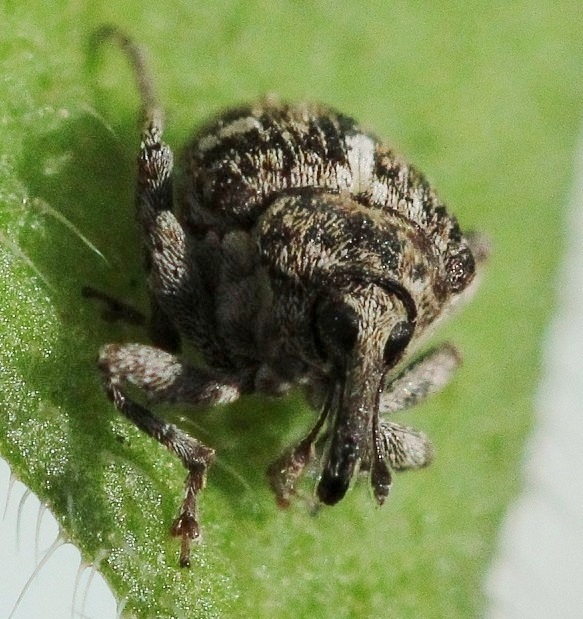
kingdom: Animalia
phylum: Arthropoda
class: Insecta
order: Coleoptera
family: Curculionidae
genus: Mogulones
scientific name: Mogulones cynoglossi
